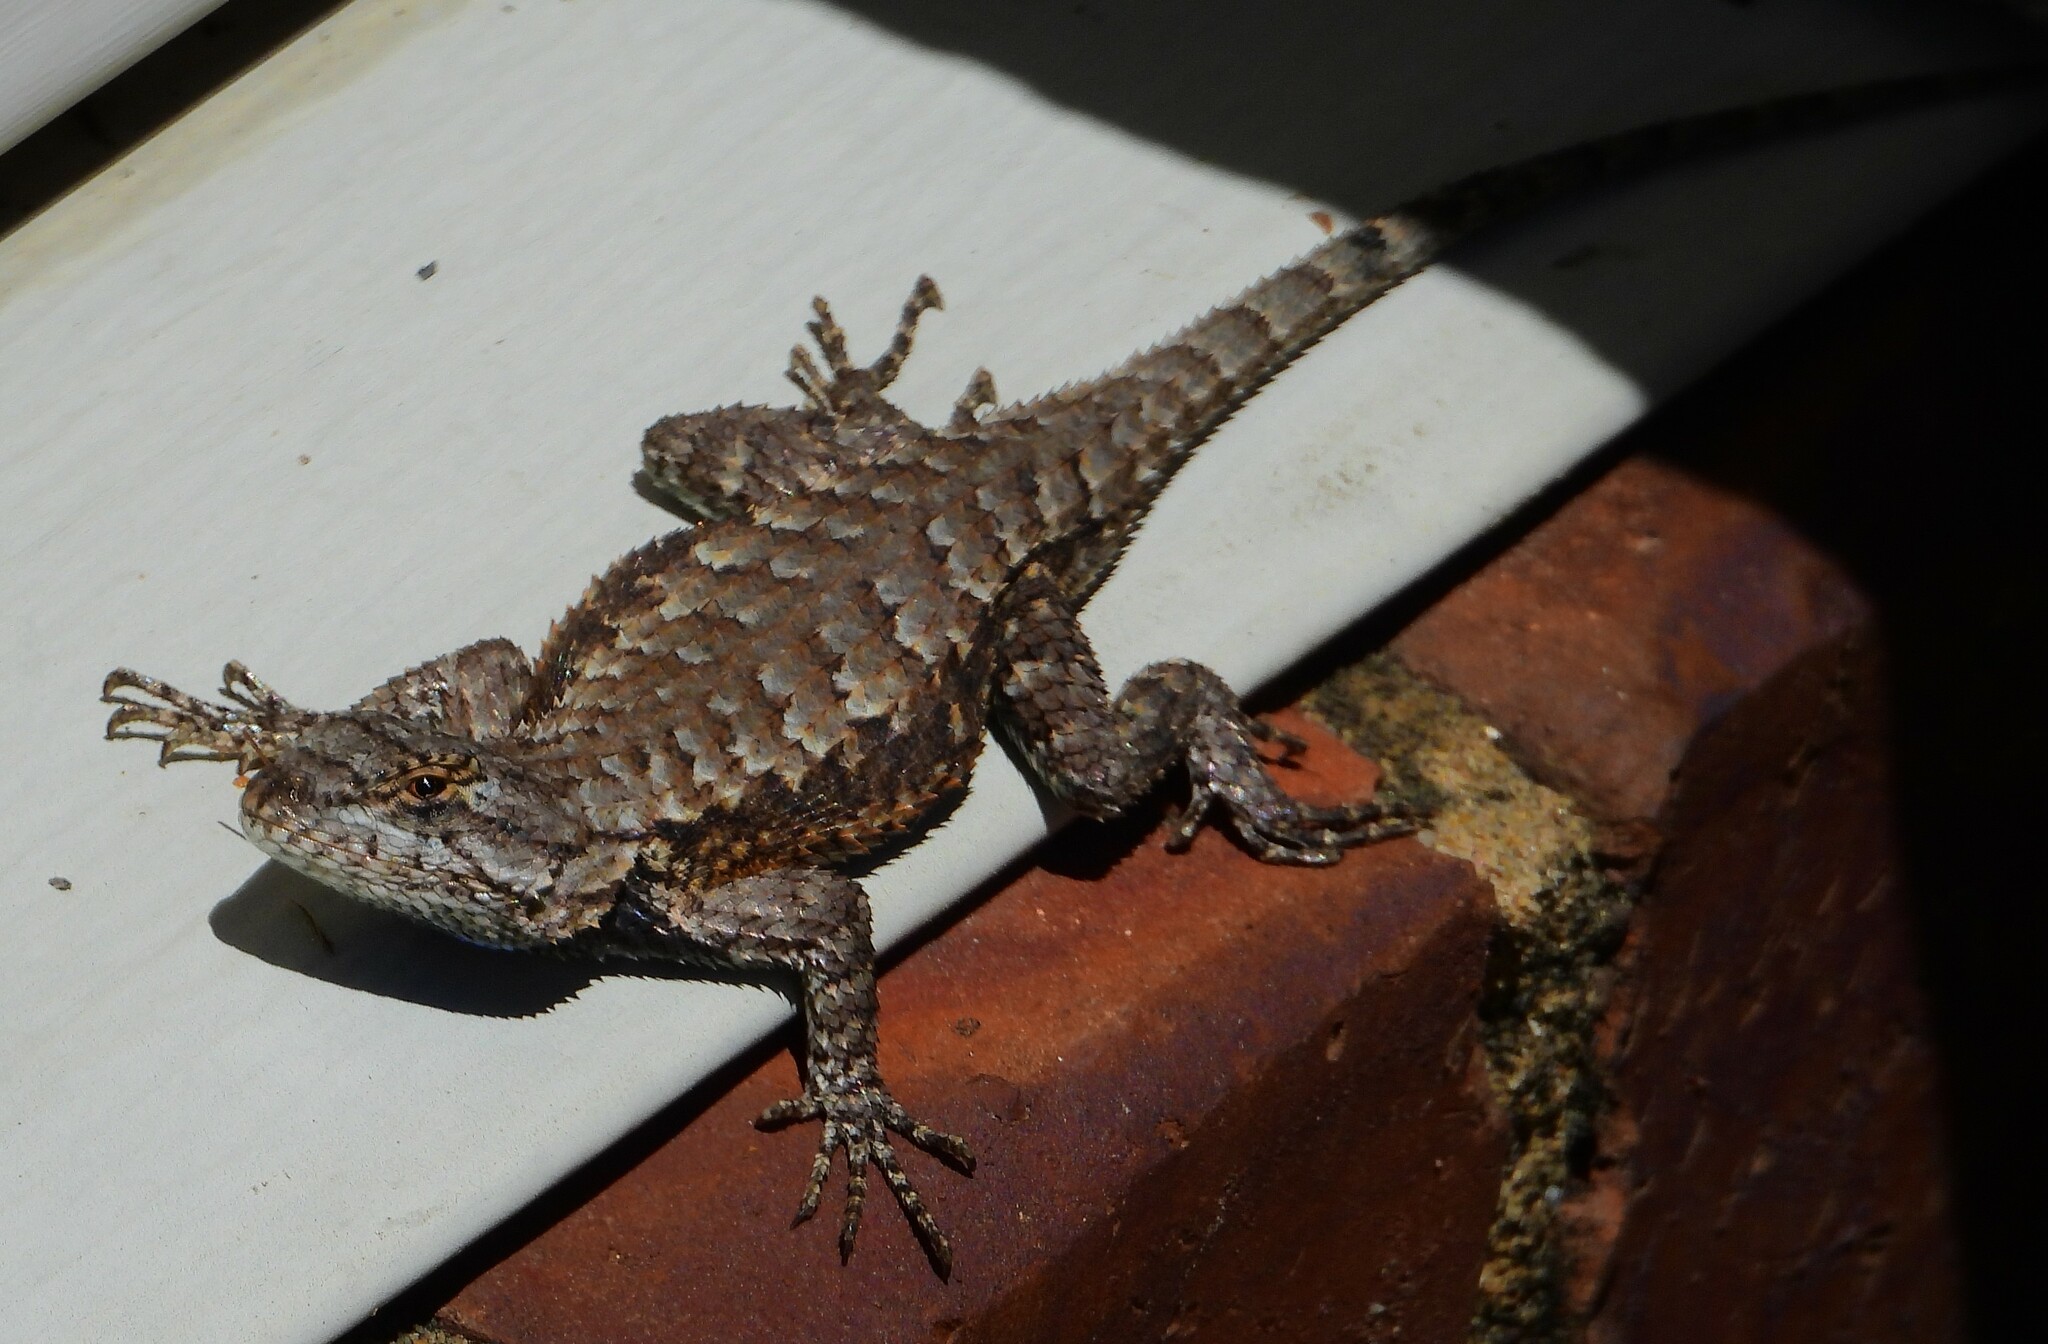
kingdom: Animalia
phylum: Chordata
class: Squamata
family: Phrynosomatidae
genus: Sceloporus
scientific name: Sceloporus undulatus
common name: Eastern fence lizard
